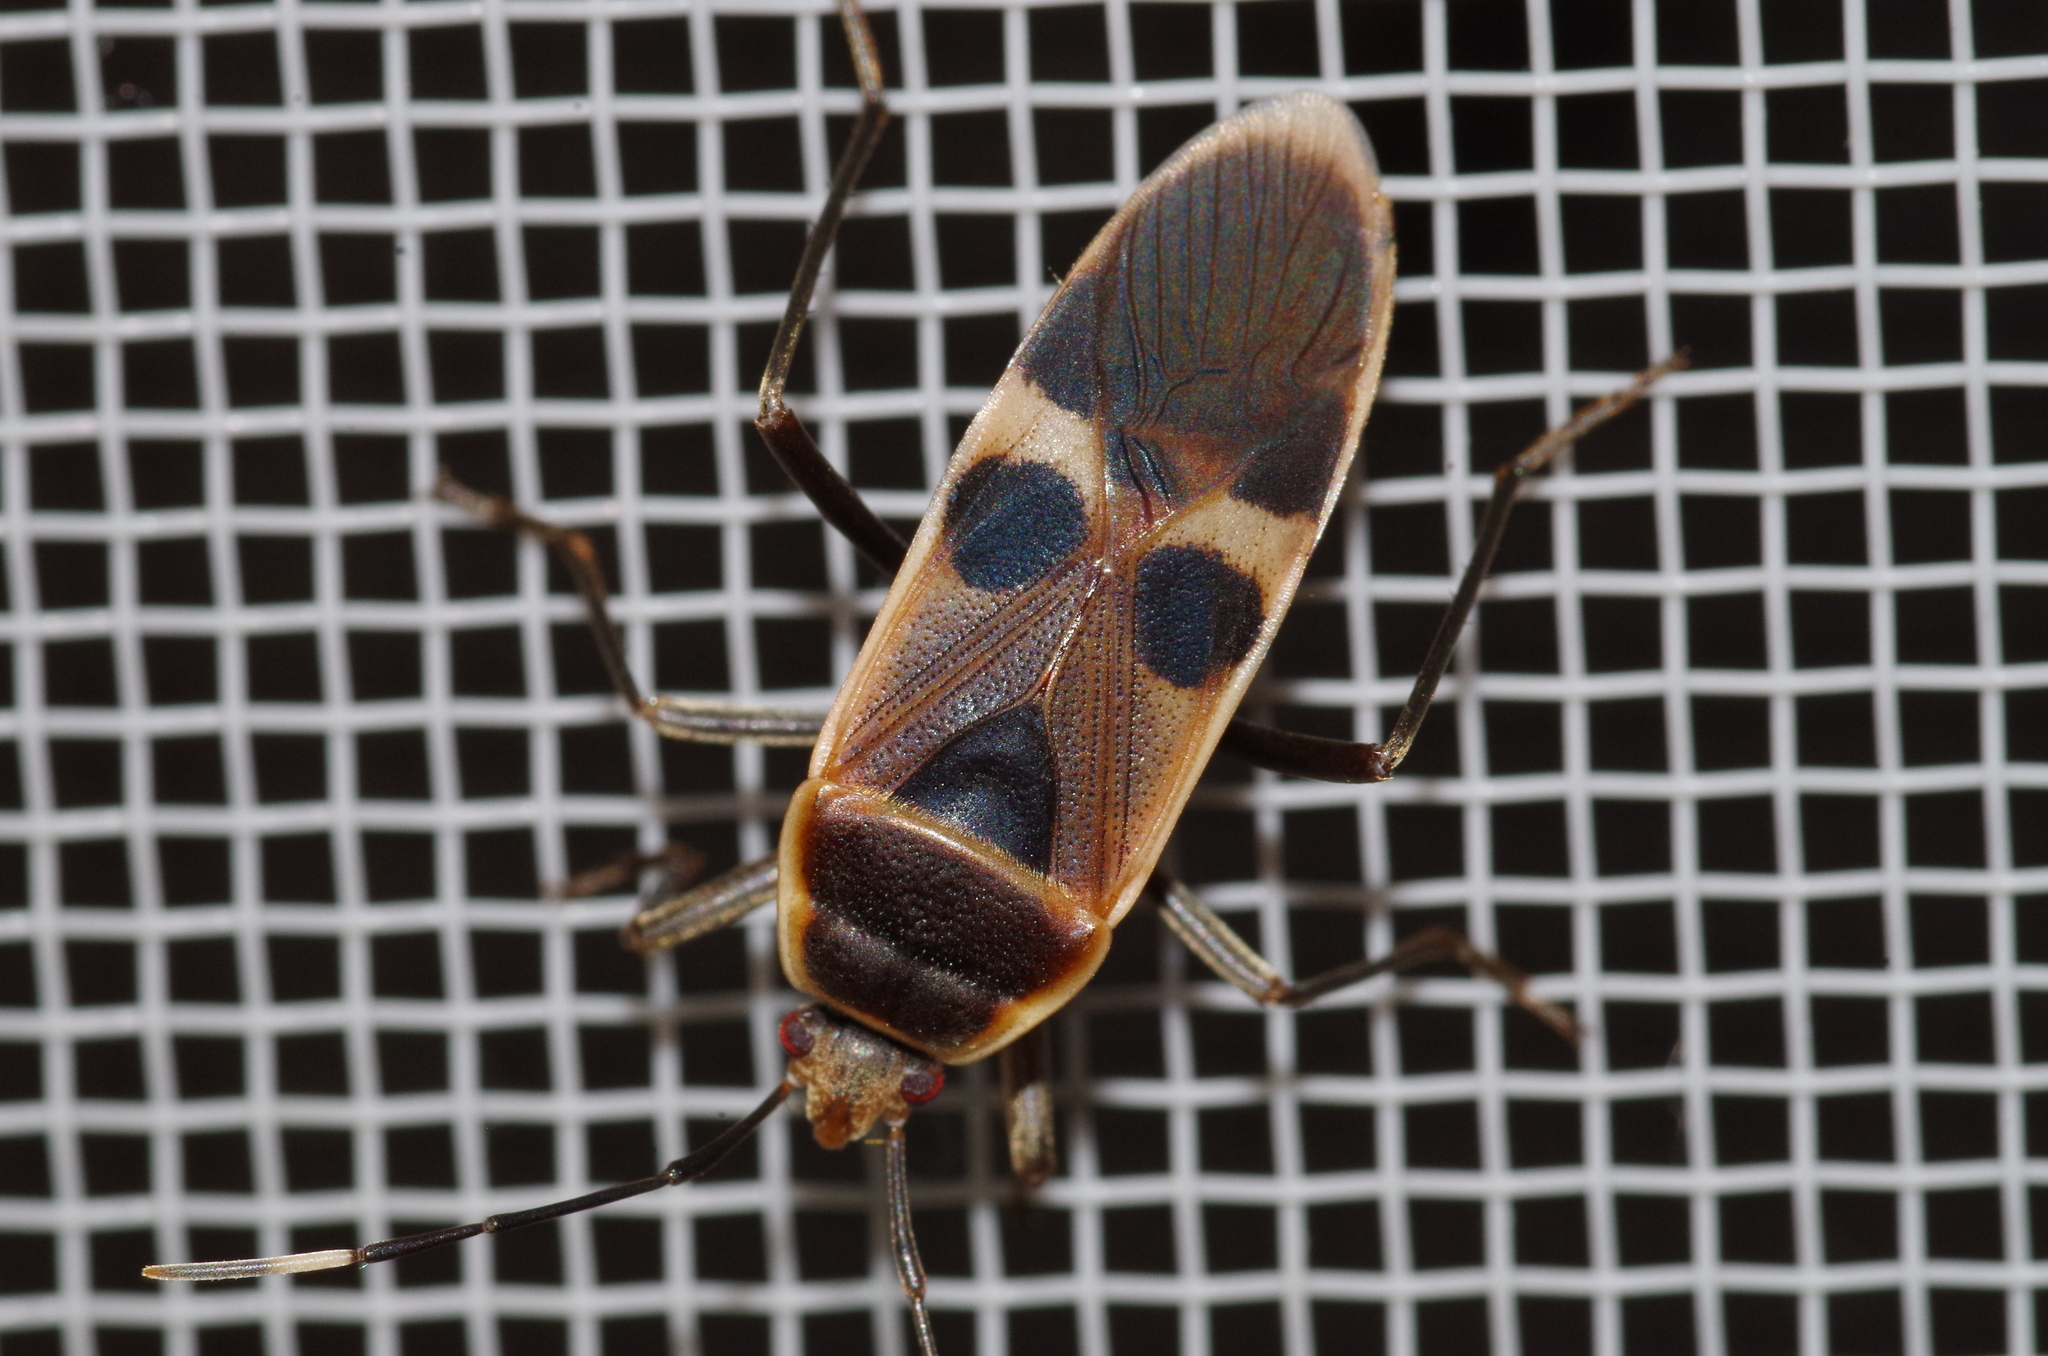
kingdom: Animalia
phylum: Arthropoda
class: Insecta
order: Hemiptera
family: Largidae
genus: Physopelta
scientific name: Physopelta gutta
